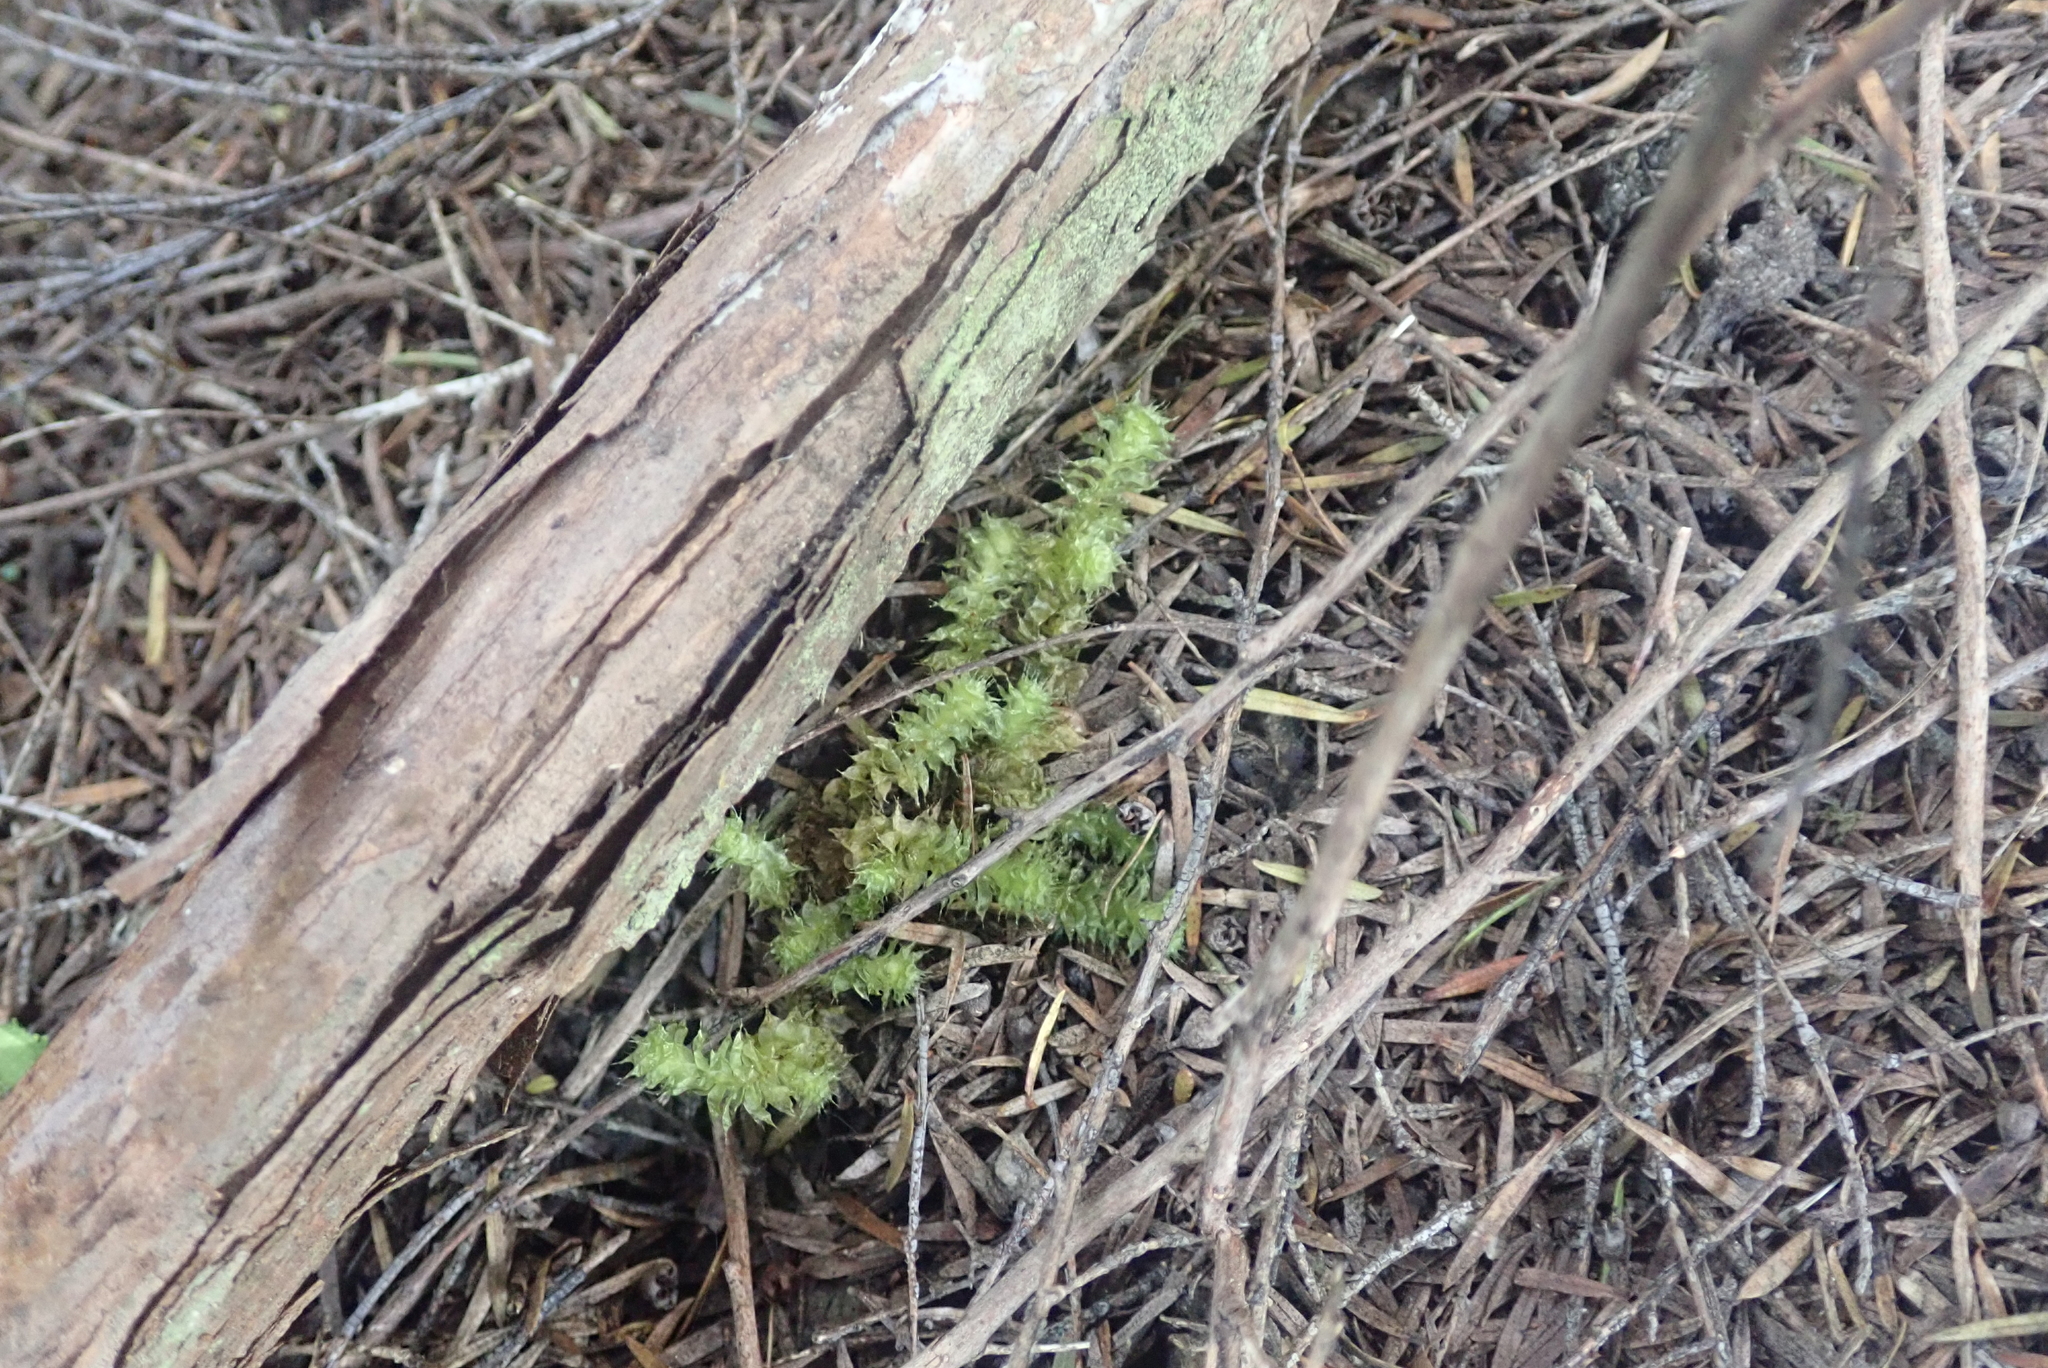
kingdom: Plantae
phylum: Bryophyta
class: Bryopsida
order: Ptychomniales
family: Ptychomniaceae
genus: Ptychomnion
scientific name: Ptychomnion aciculare
